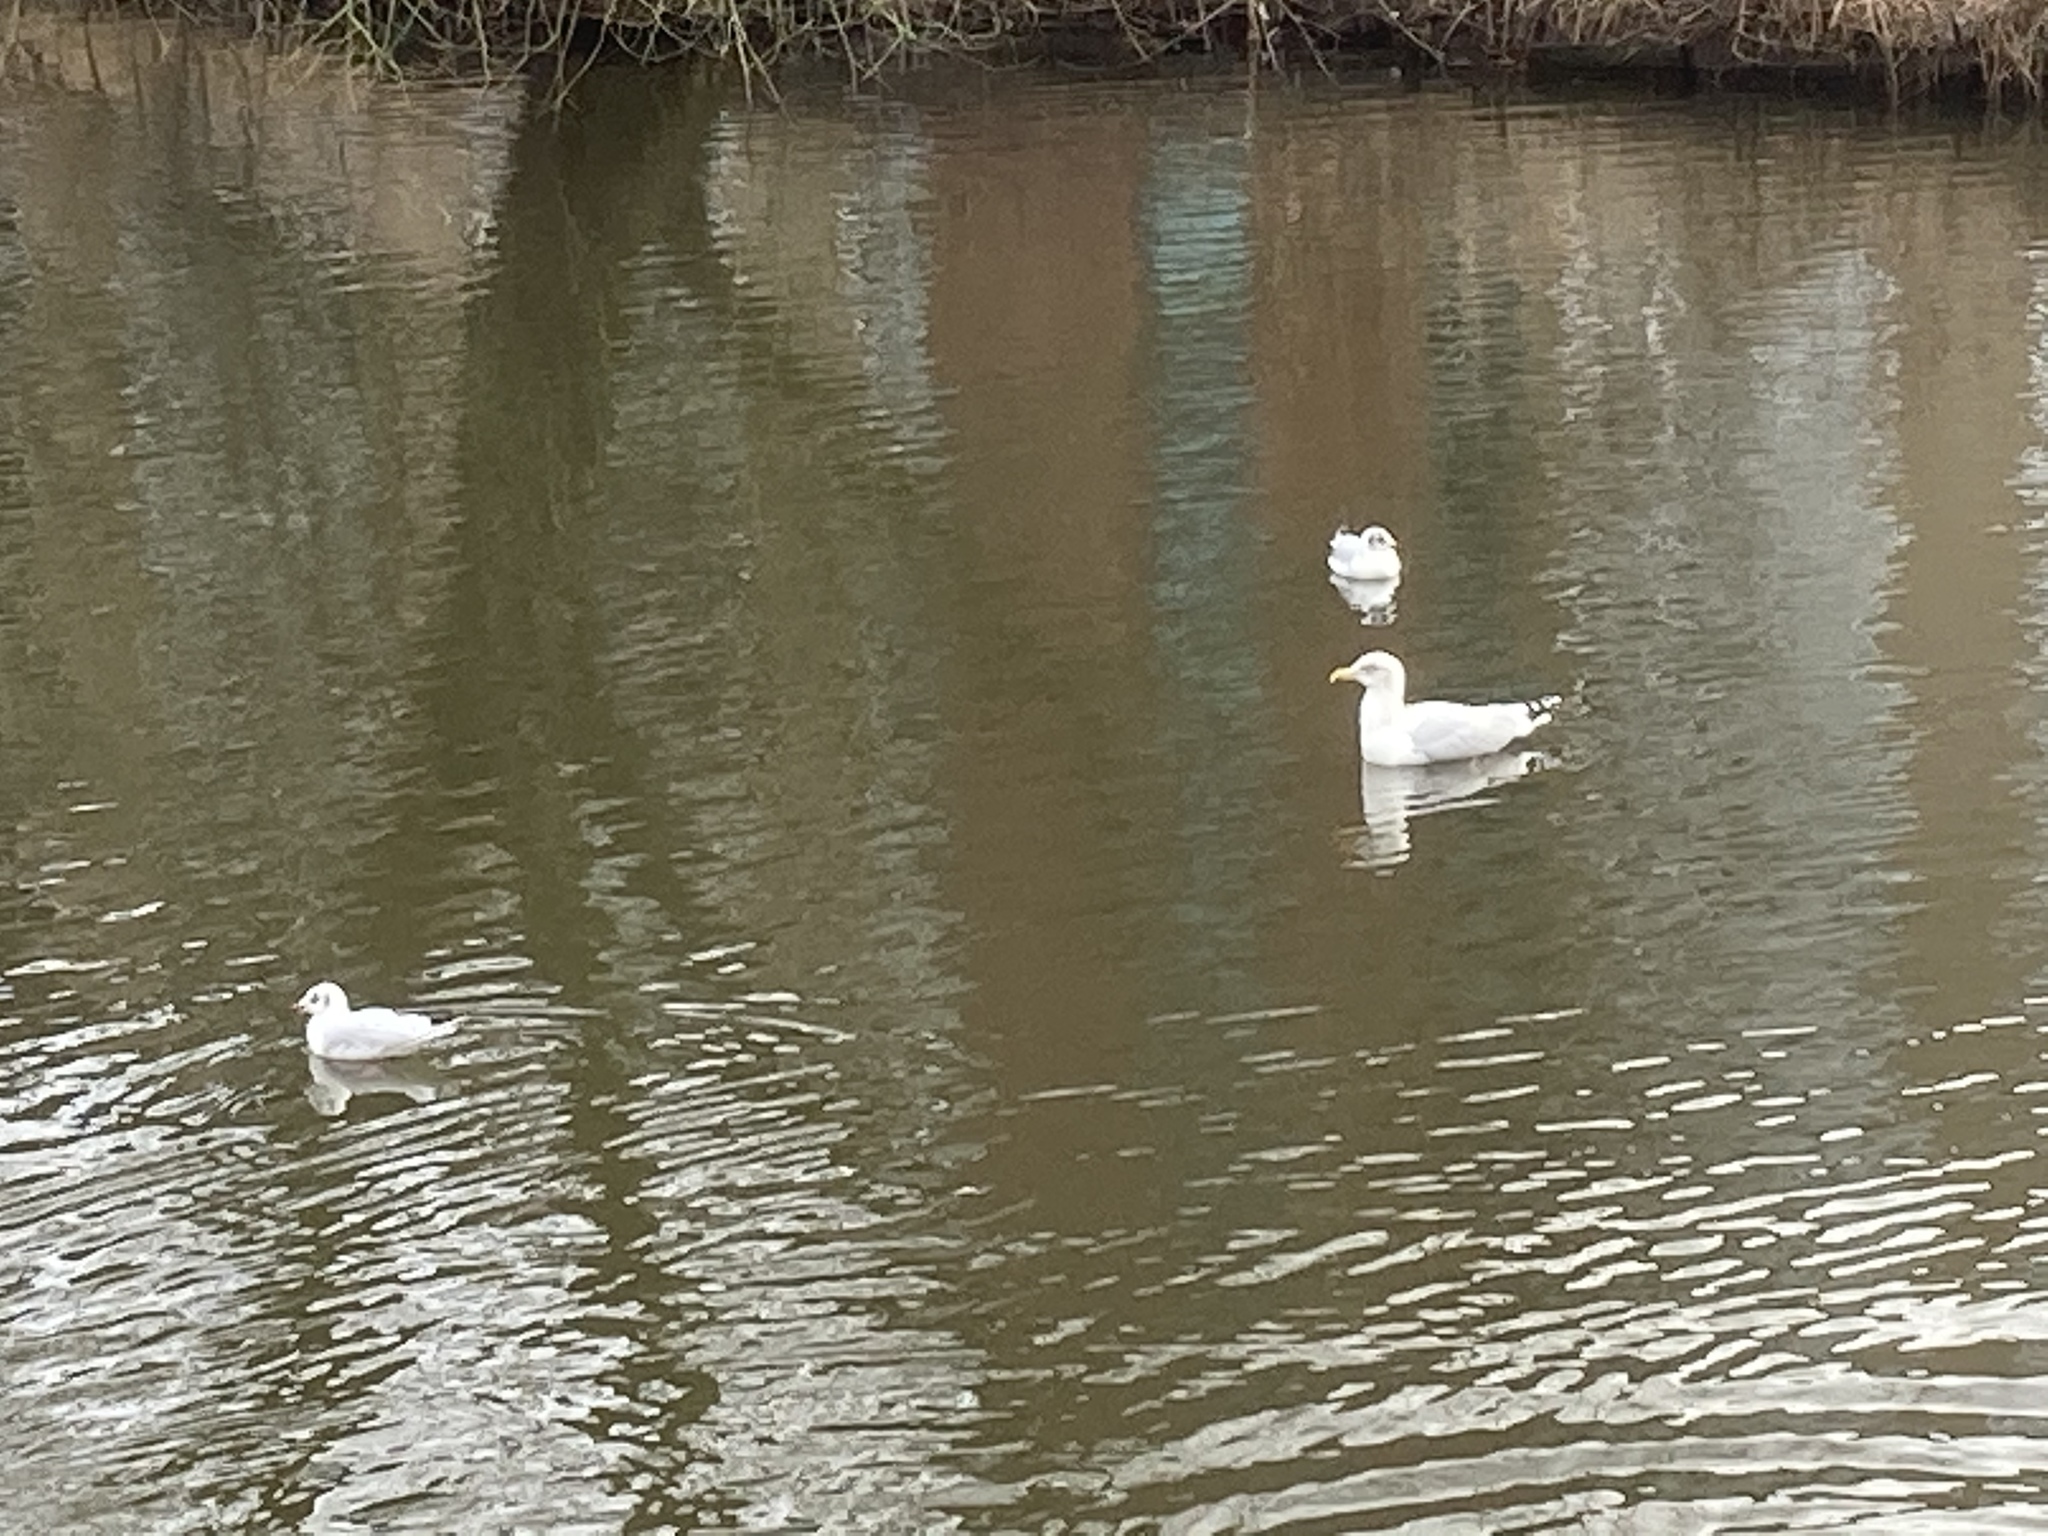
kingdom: Animalia
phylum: Chordata
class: Aves
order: Charadriiformes
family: Laridae
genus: Larus
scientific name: Larus argentatus
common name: Herring gull
